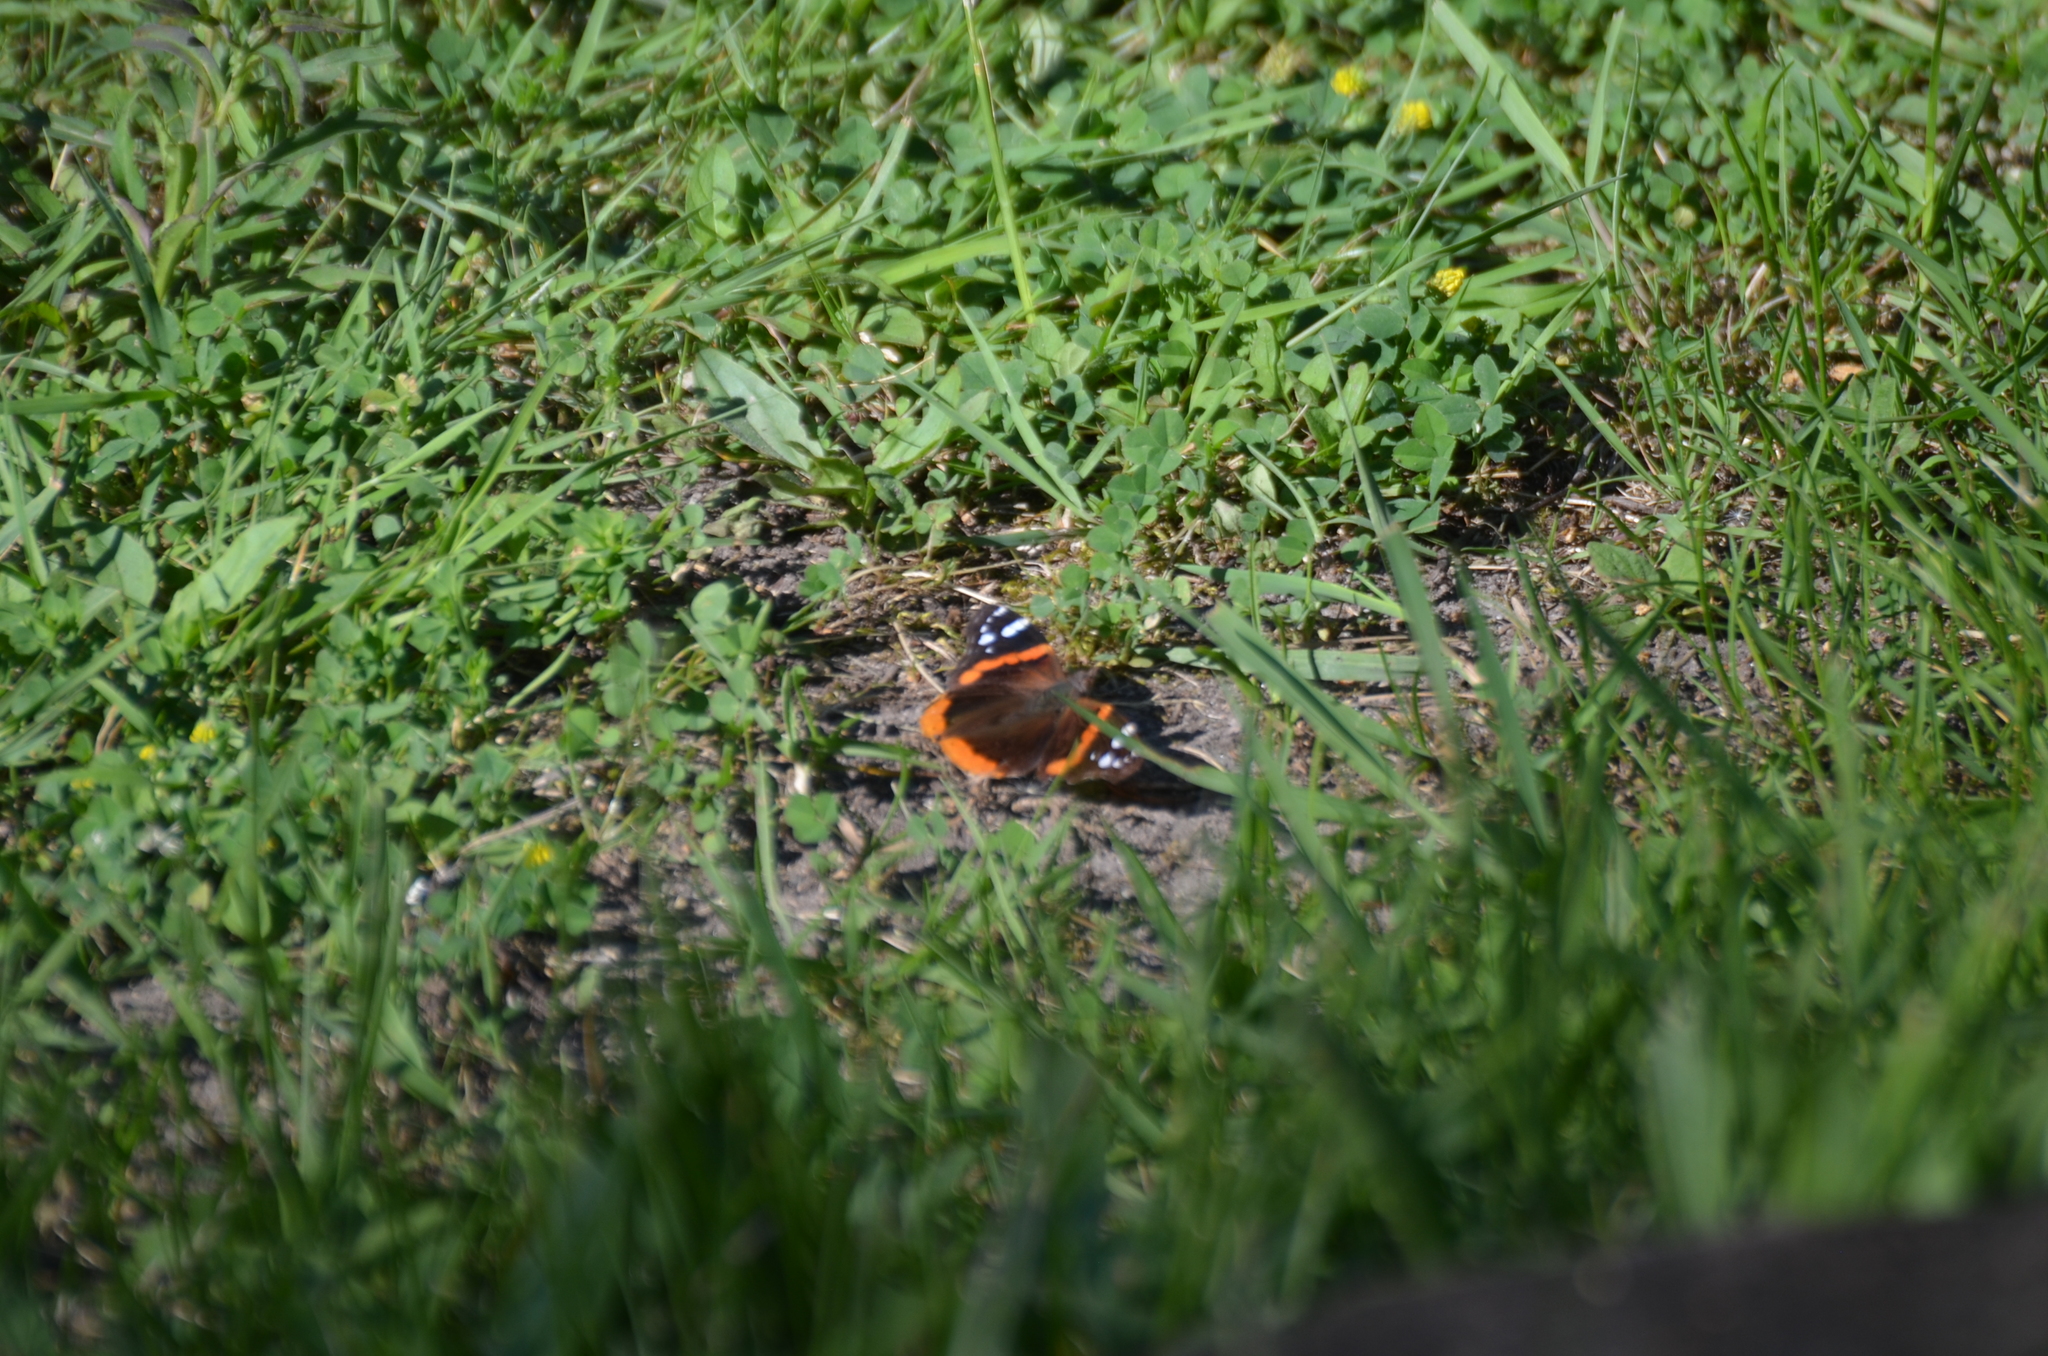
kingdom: Animalia
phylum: Arthropoda
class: Insecta
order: Lepidoptera
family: Nymphalidae
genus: Vanessa
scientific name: Vanessa atalanta
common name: Red admiral
